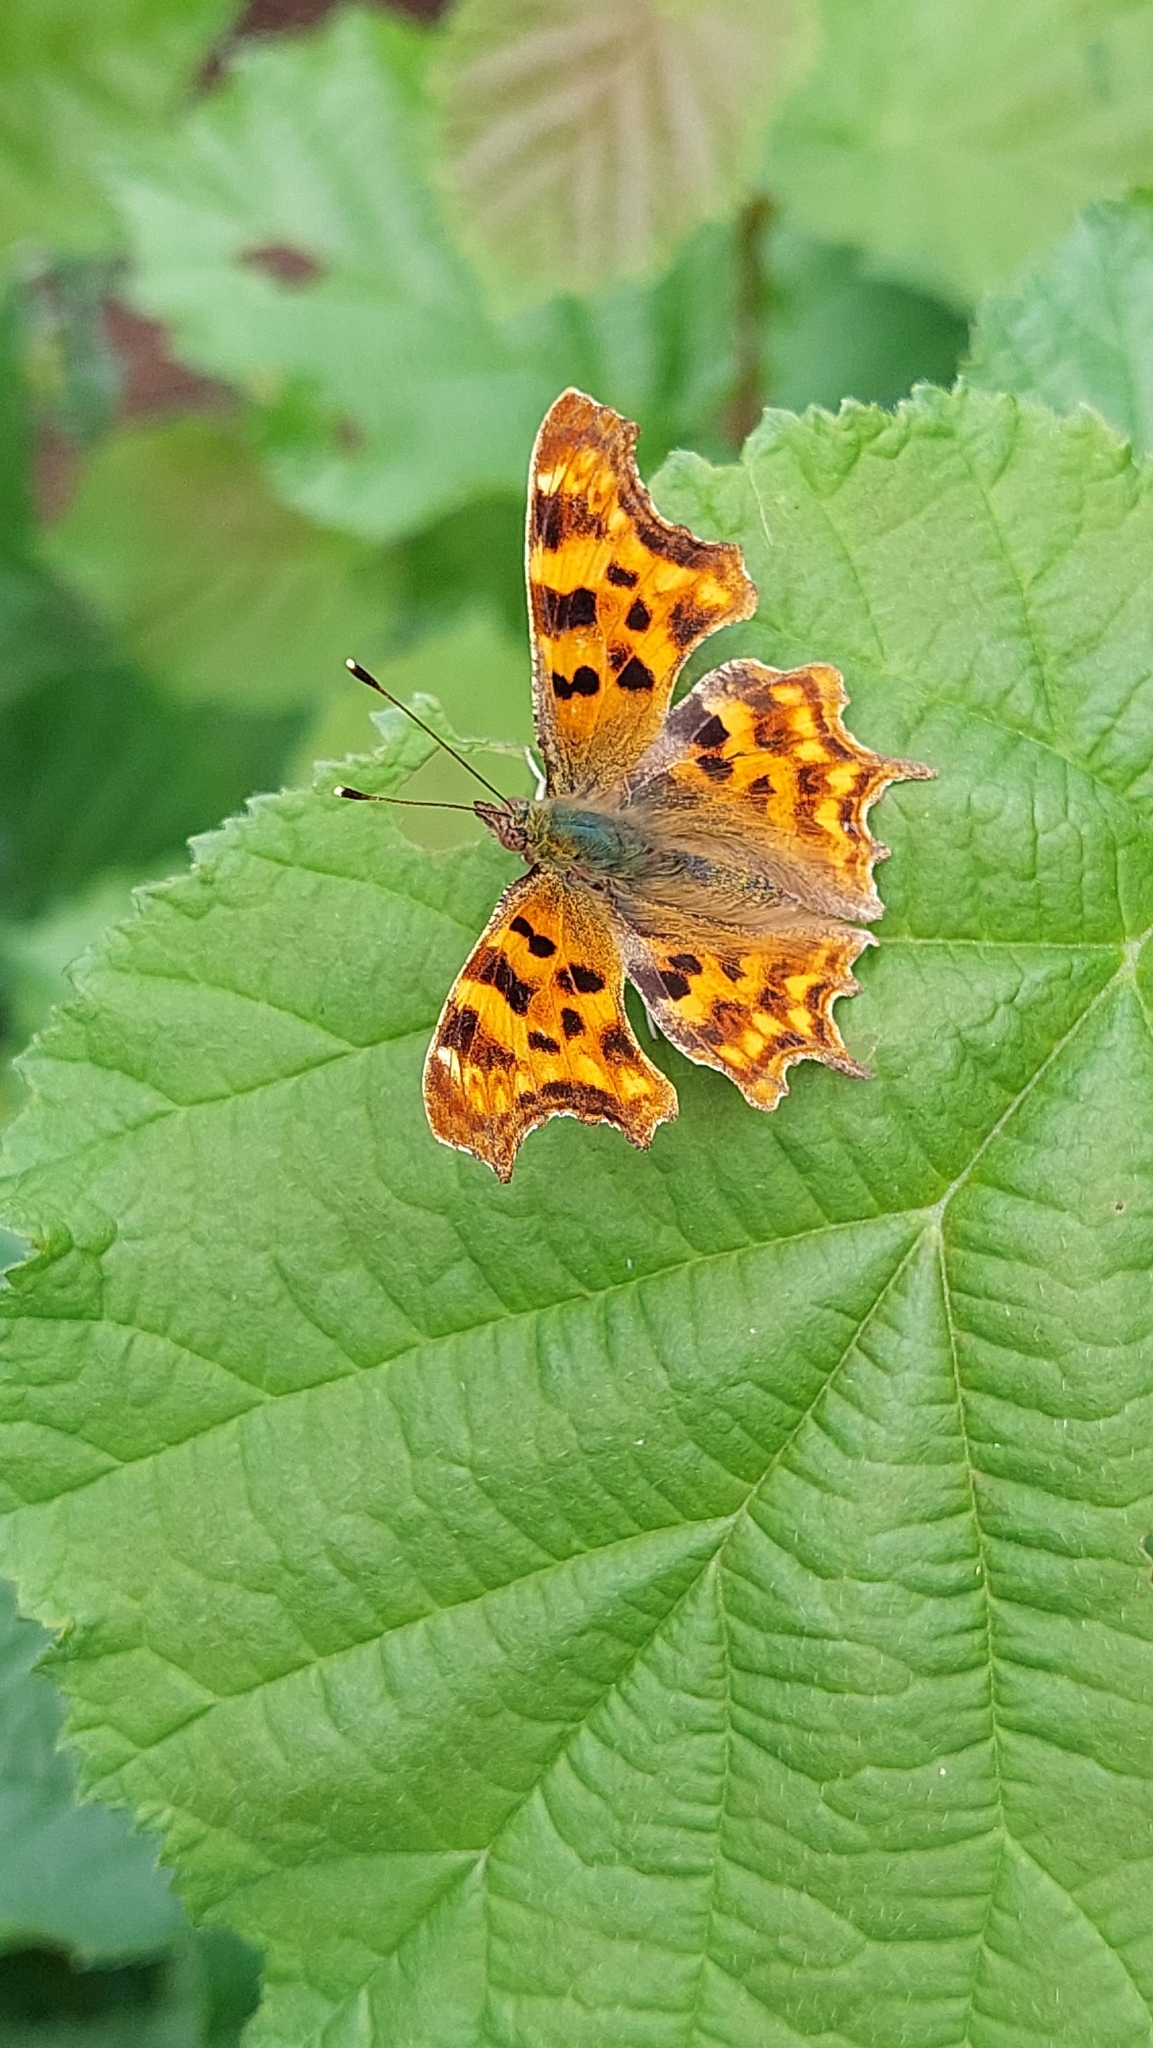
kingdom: Animalia
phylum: Arthropoda
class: Insecta
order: Lepidoptera
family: Nymphalidae
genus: Polygonia
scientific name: Polygonia c-album
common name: Comma
